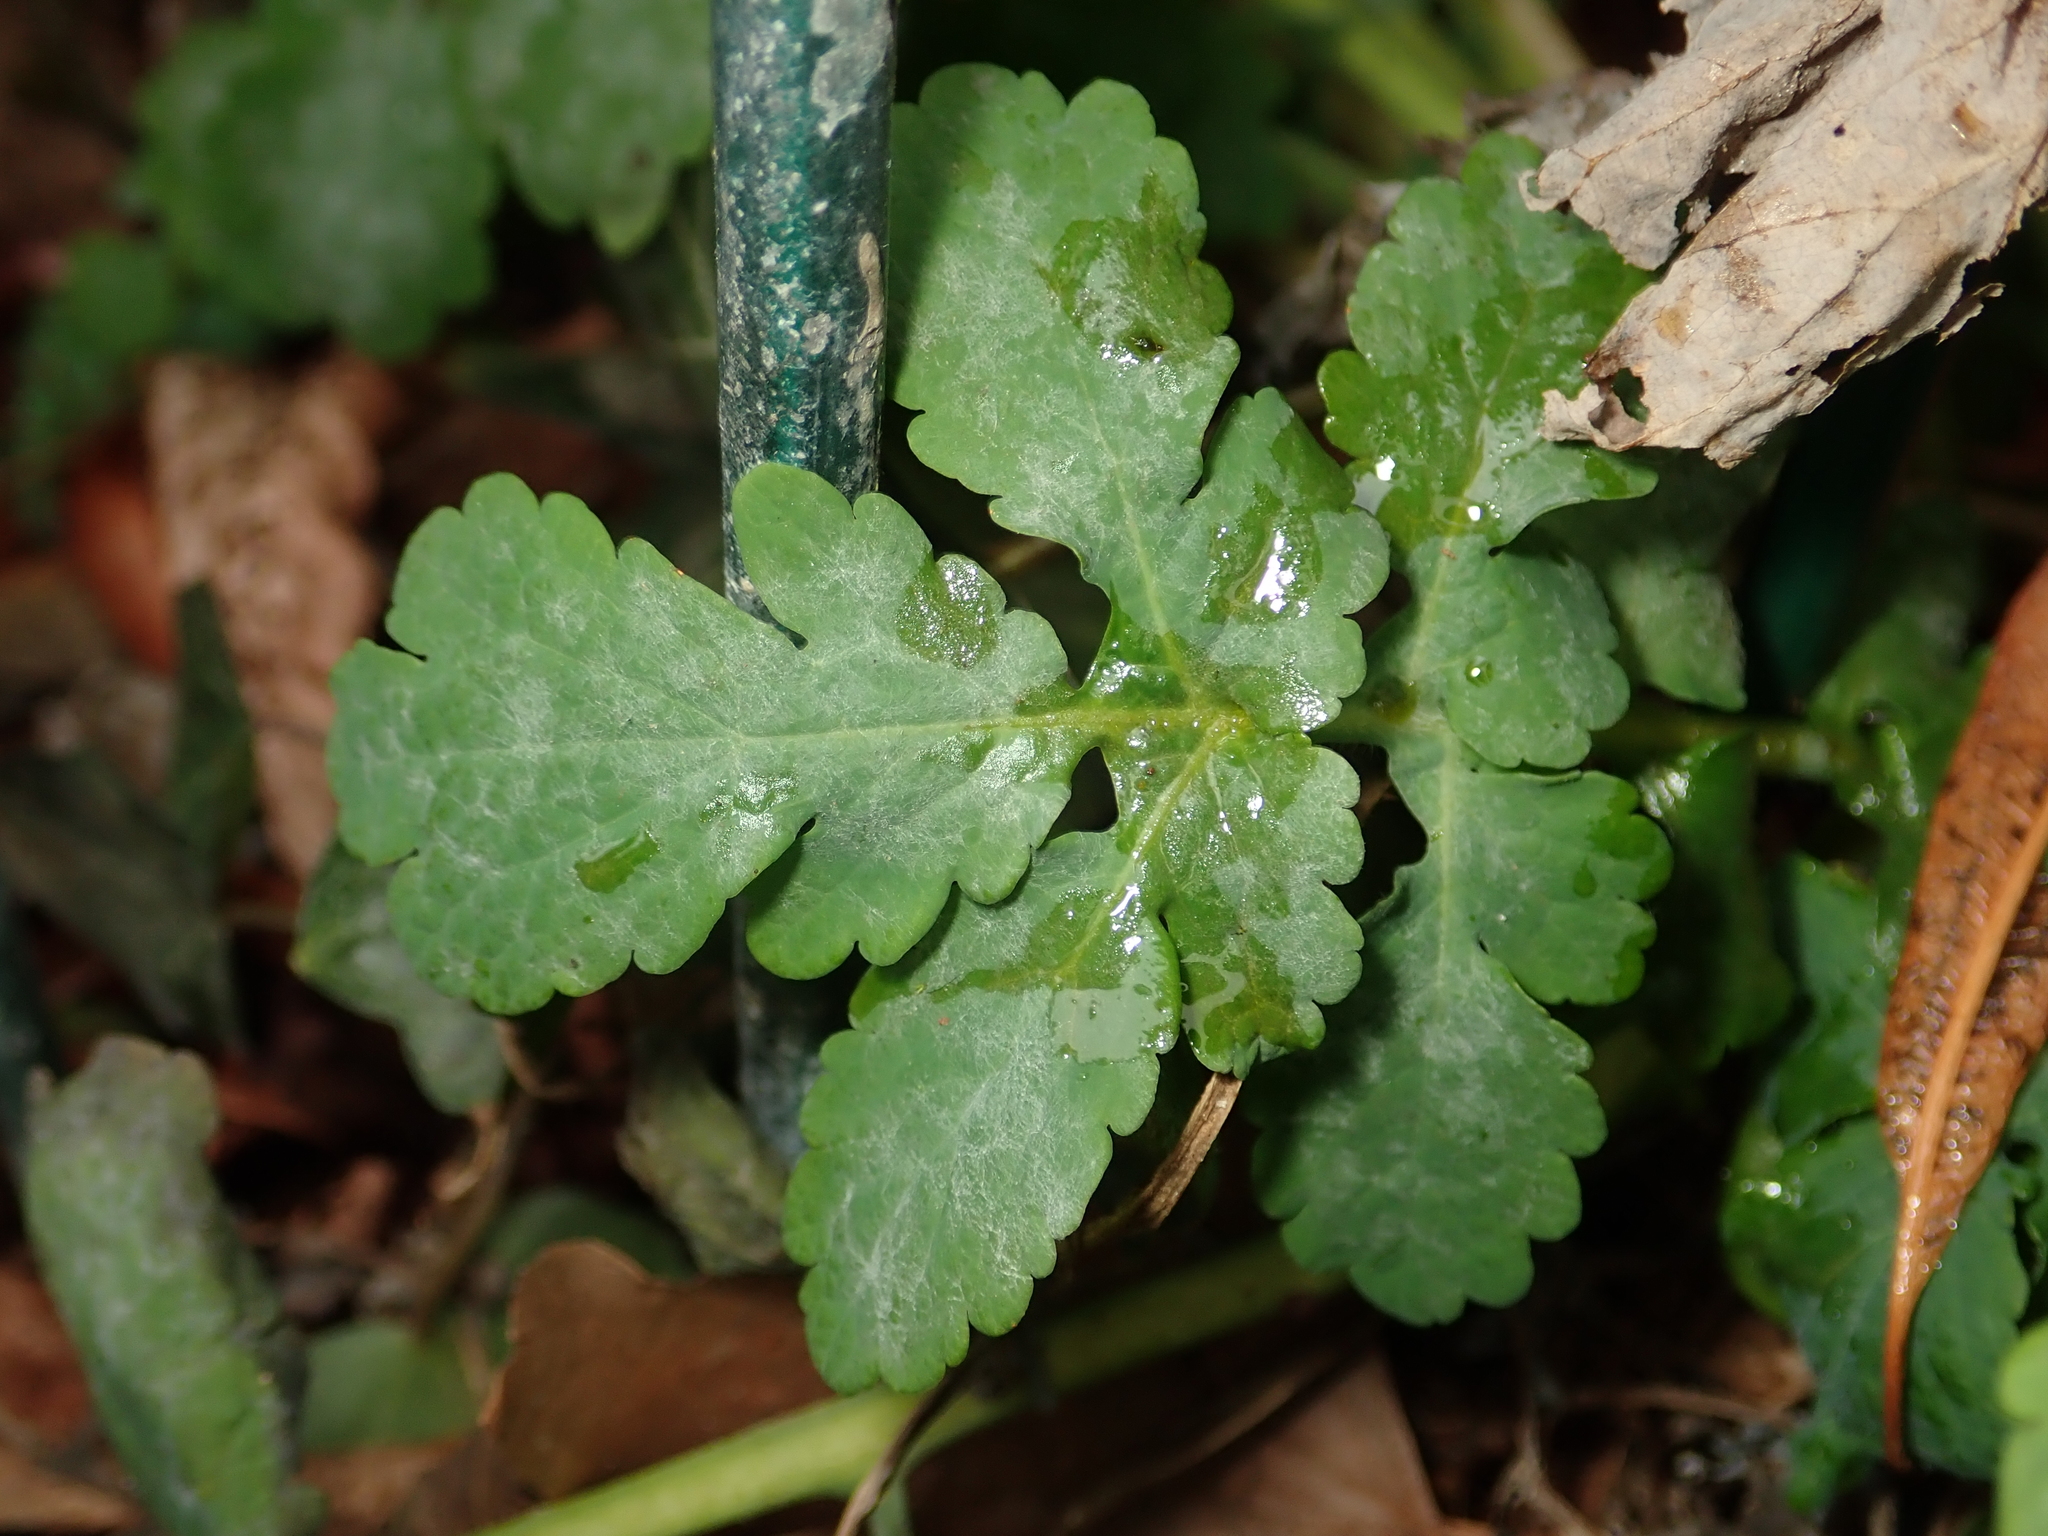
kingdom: Plantae
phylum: Tracheophyta
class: Magnoliopsida
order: Ranunculales
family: Papaveraceae
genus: Chelidonium
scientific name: Chelidonium majus
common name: Greater celandine
